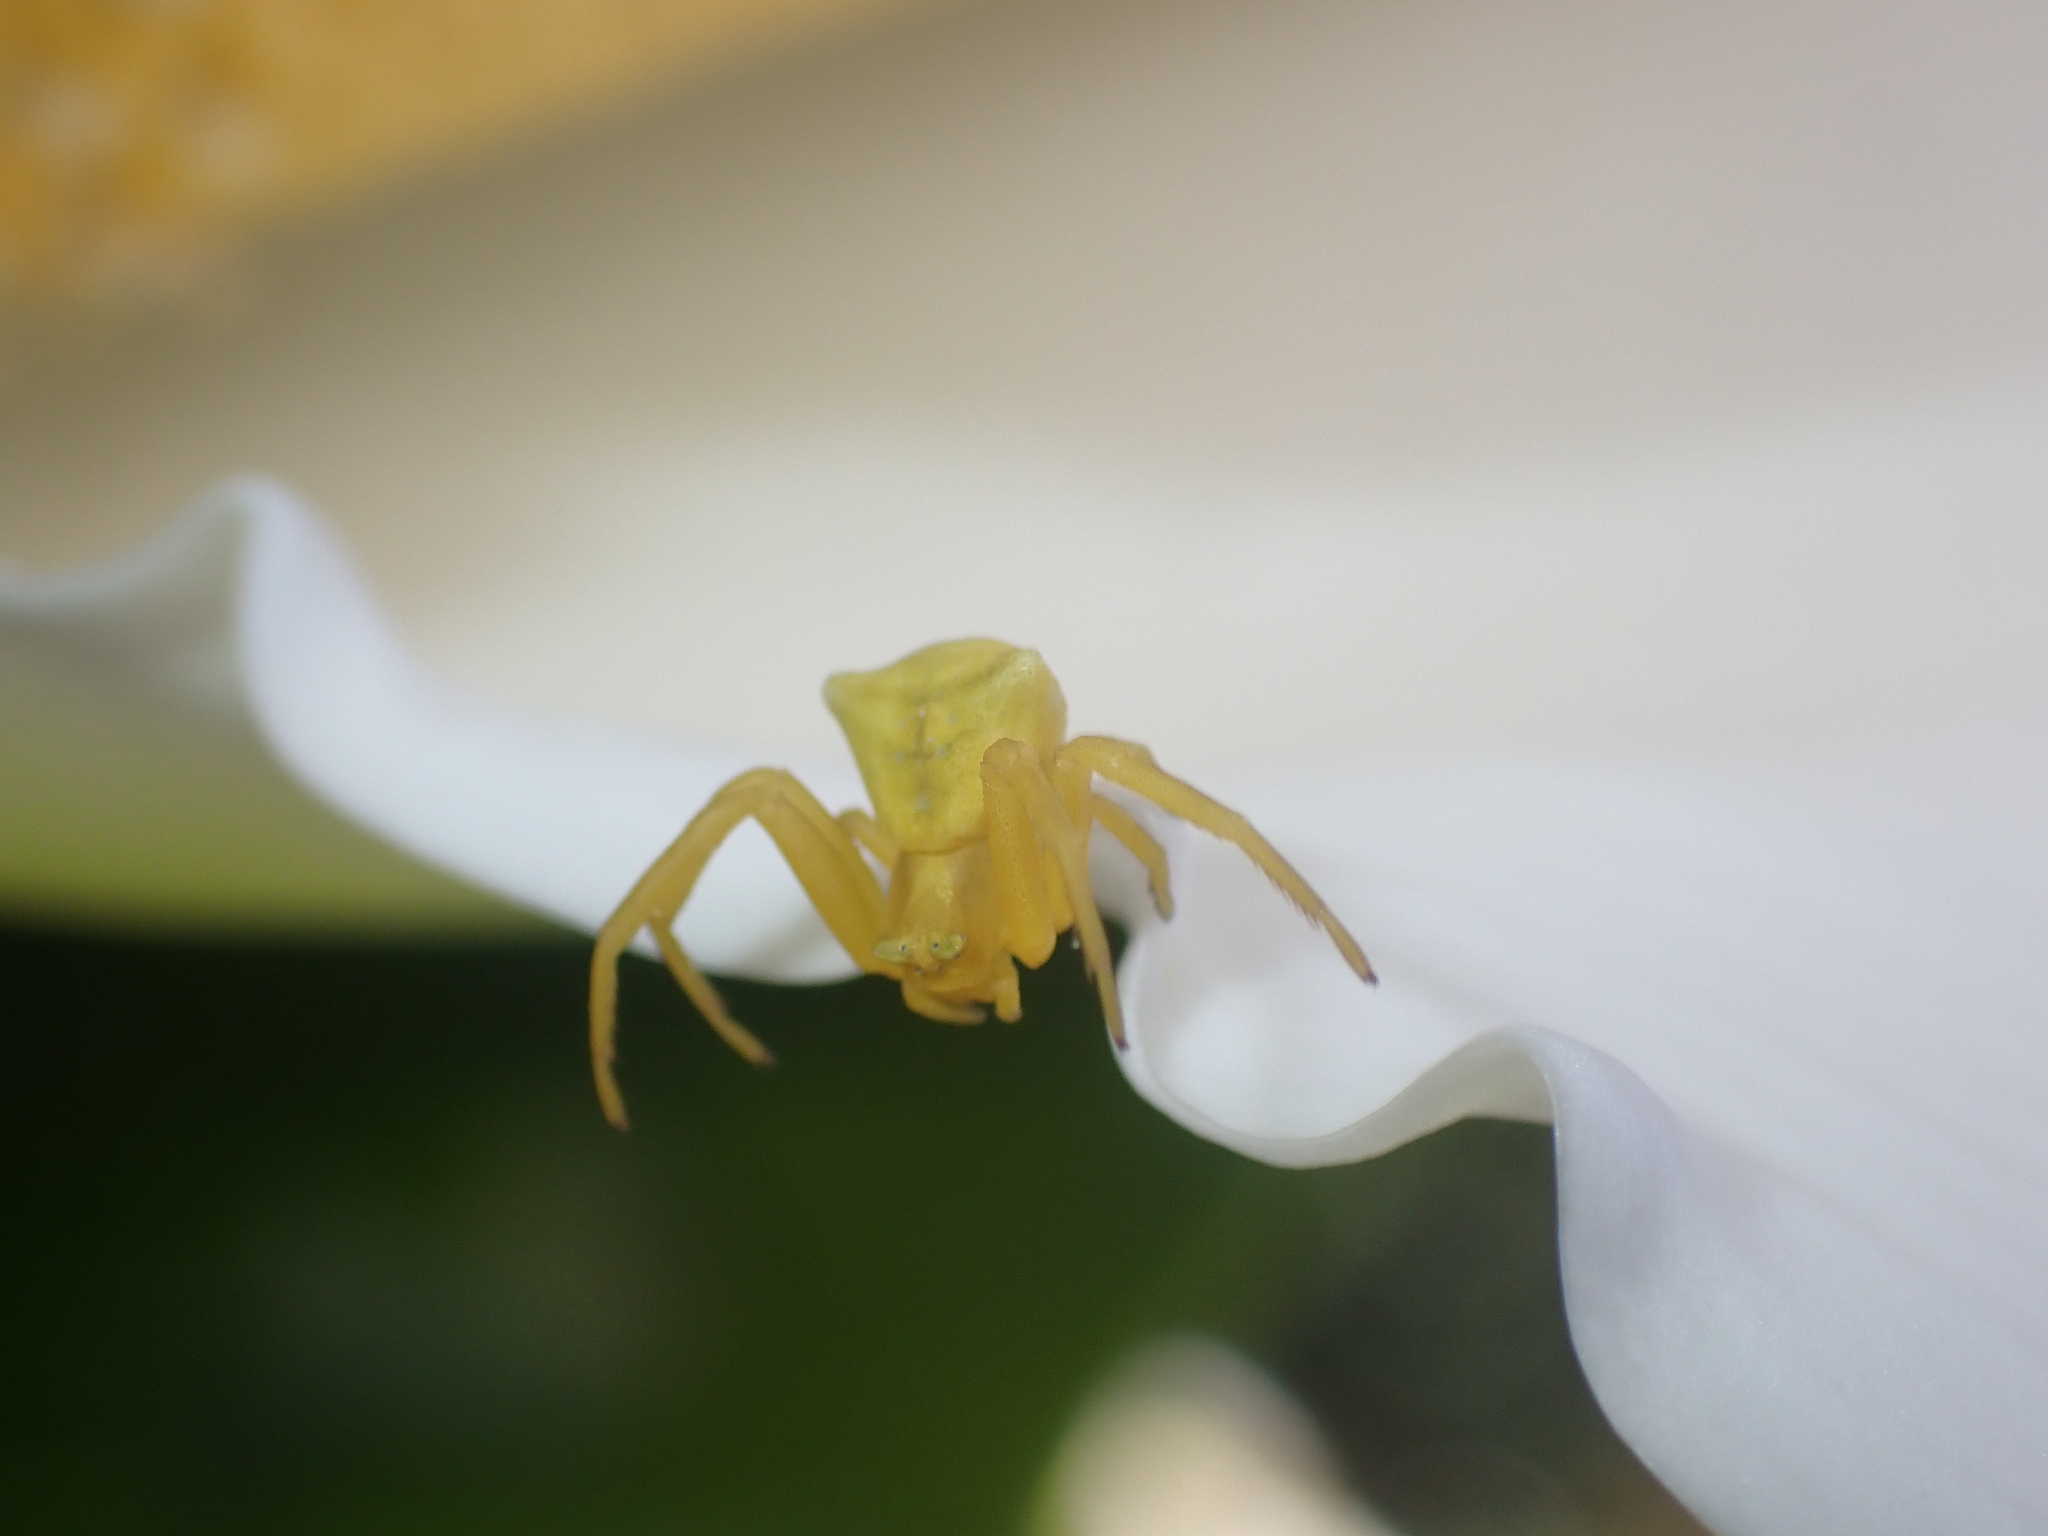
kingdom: Animalia
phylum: Arthropoda
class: Arachnida
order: Araneae
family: Thomisidae
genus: Thomisus
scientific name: Thomisus onustus
